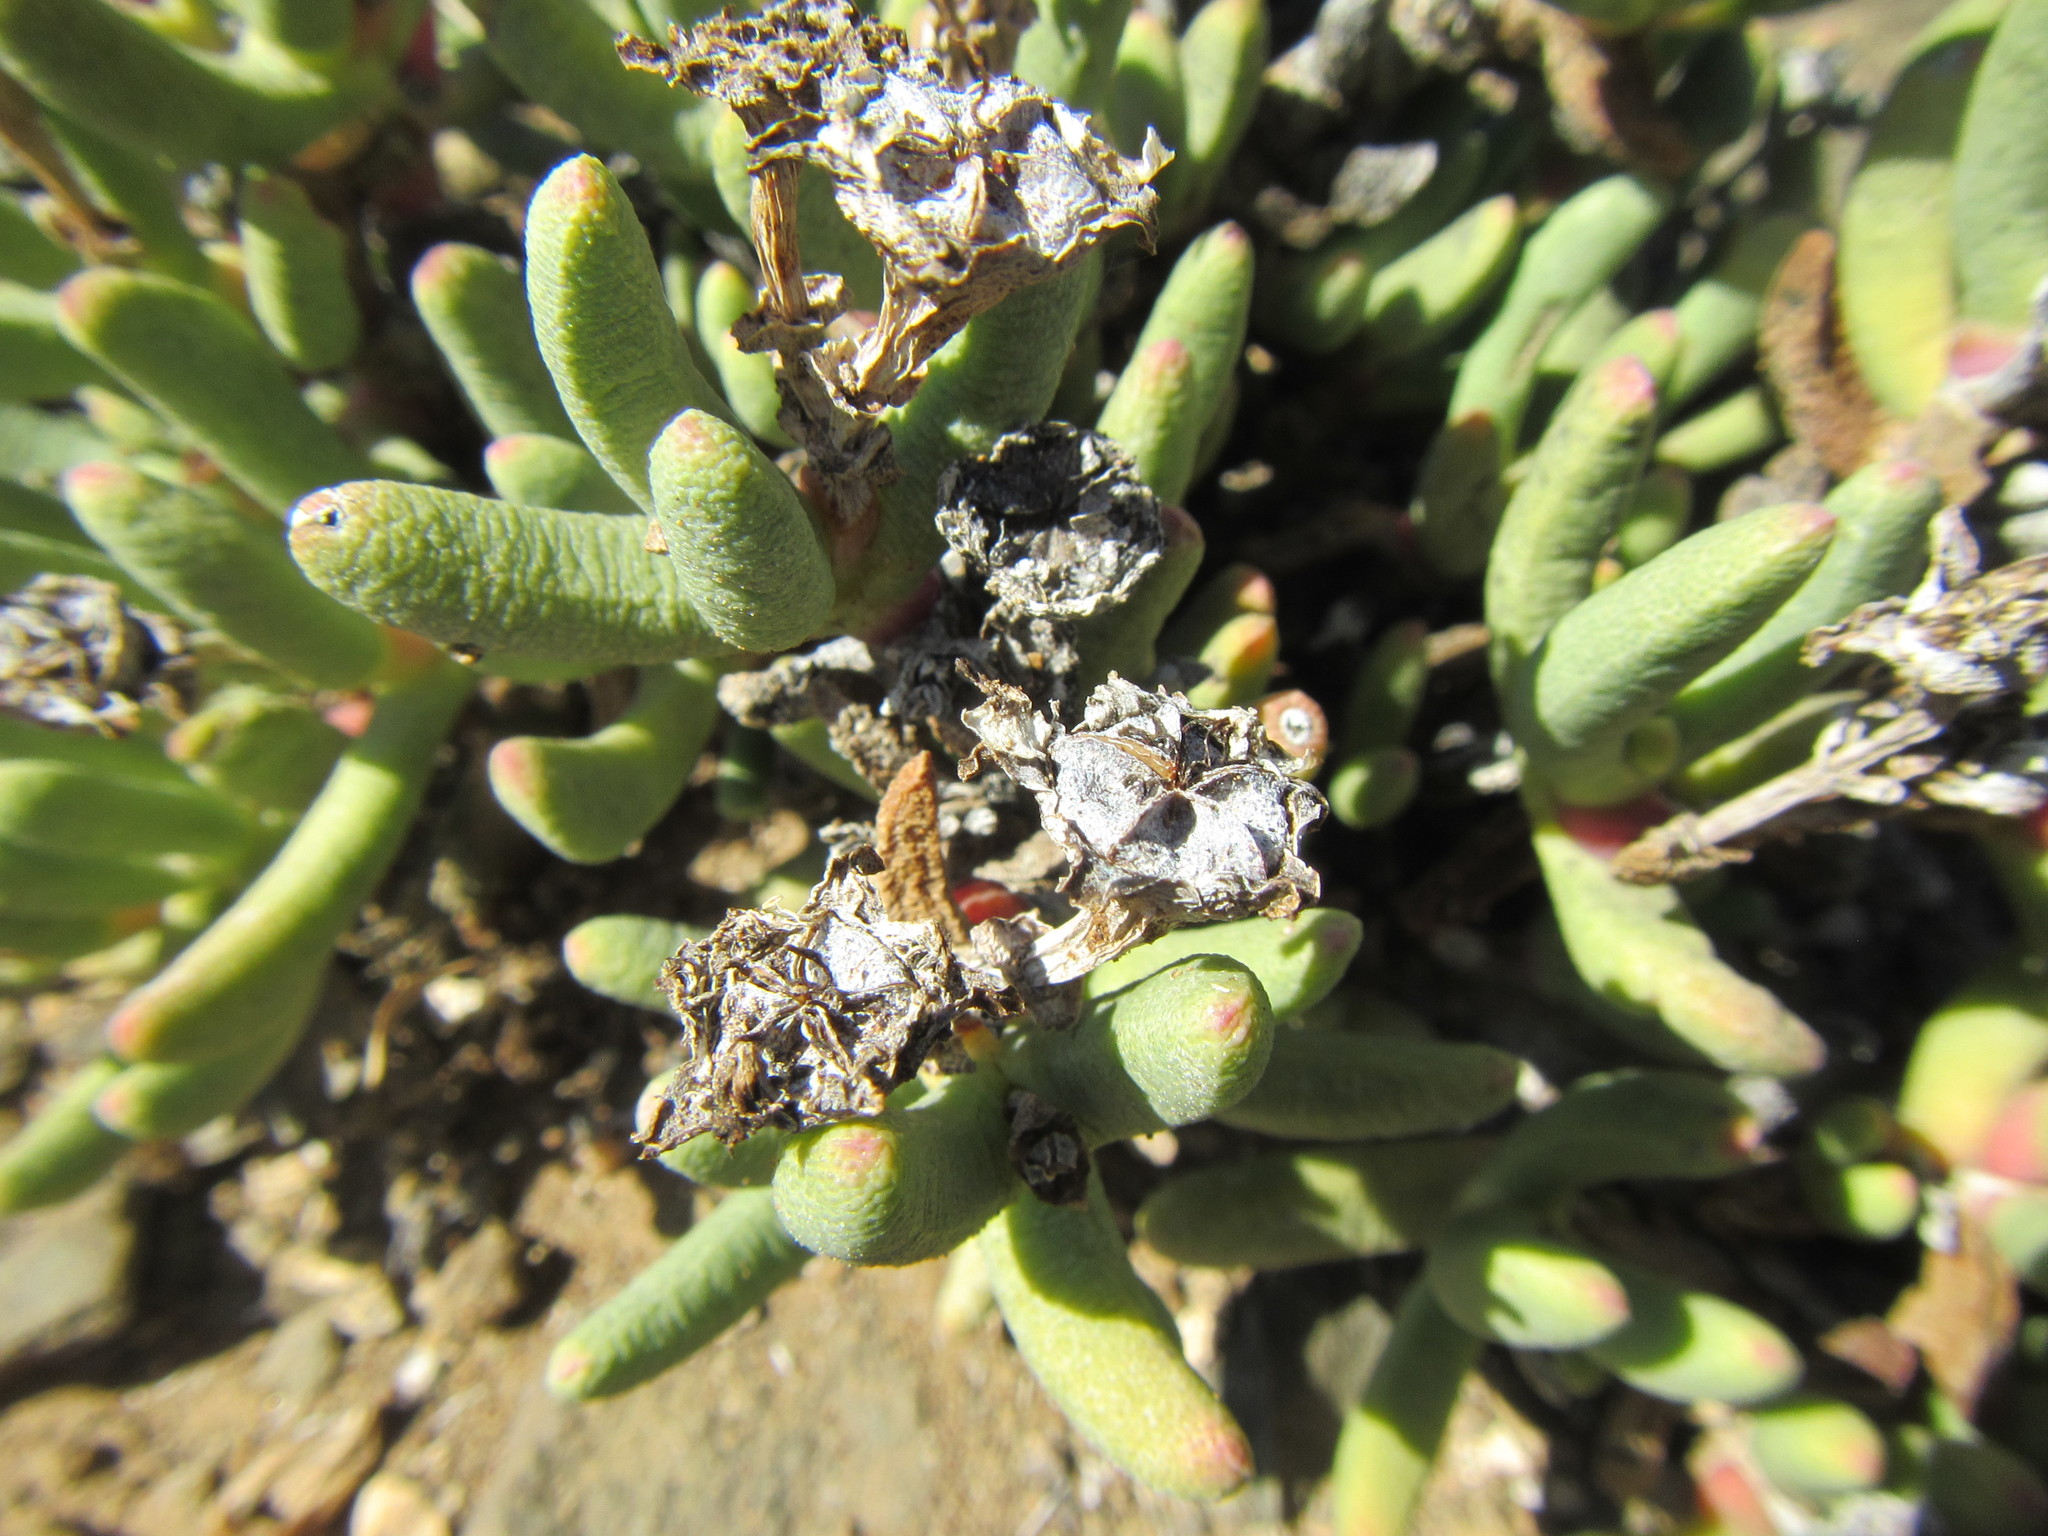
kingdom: Plantae
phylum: Tracheophyta
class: Magnoliopsida
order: Caryophyllales
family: Aizoaceae
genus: Dracophilus
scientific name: Dracophilus Hereroa aspera
